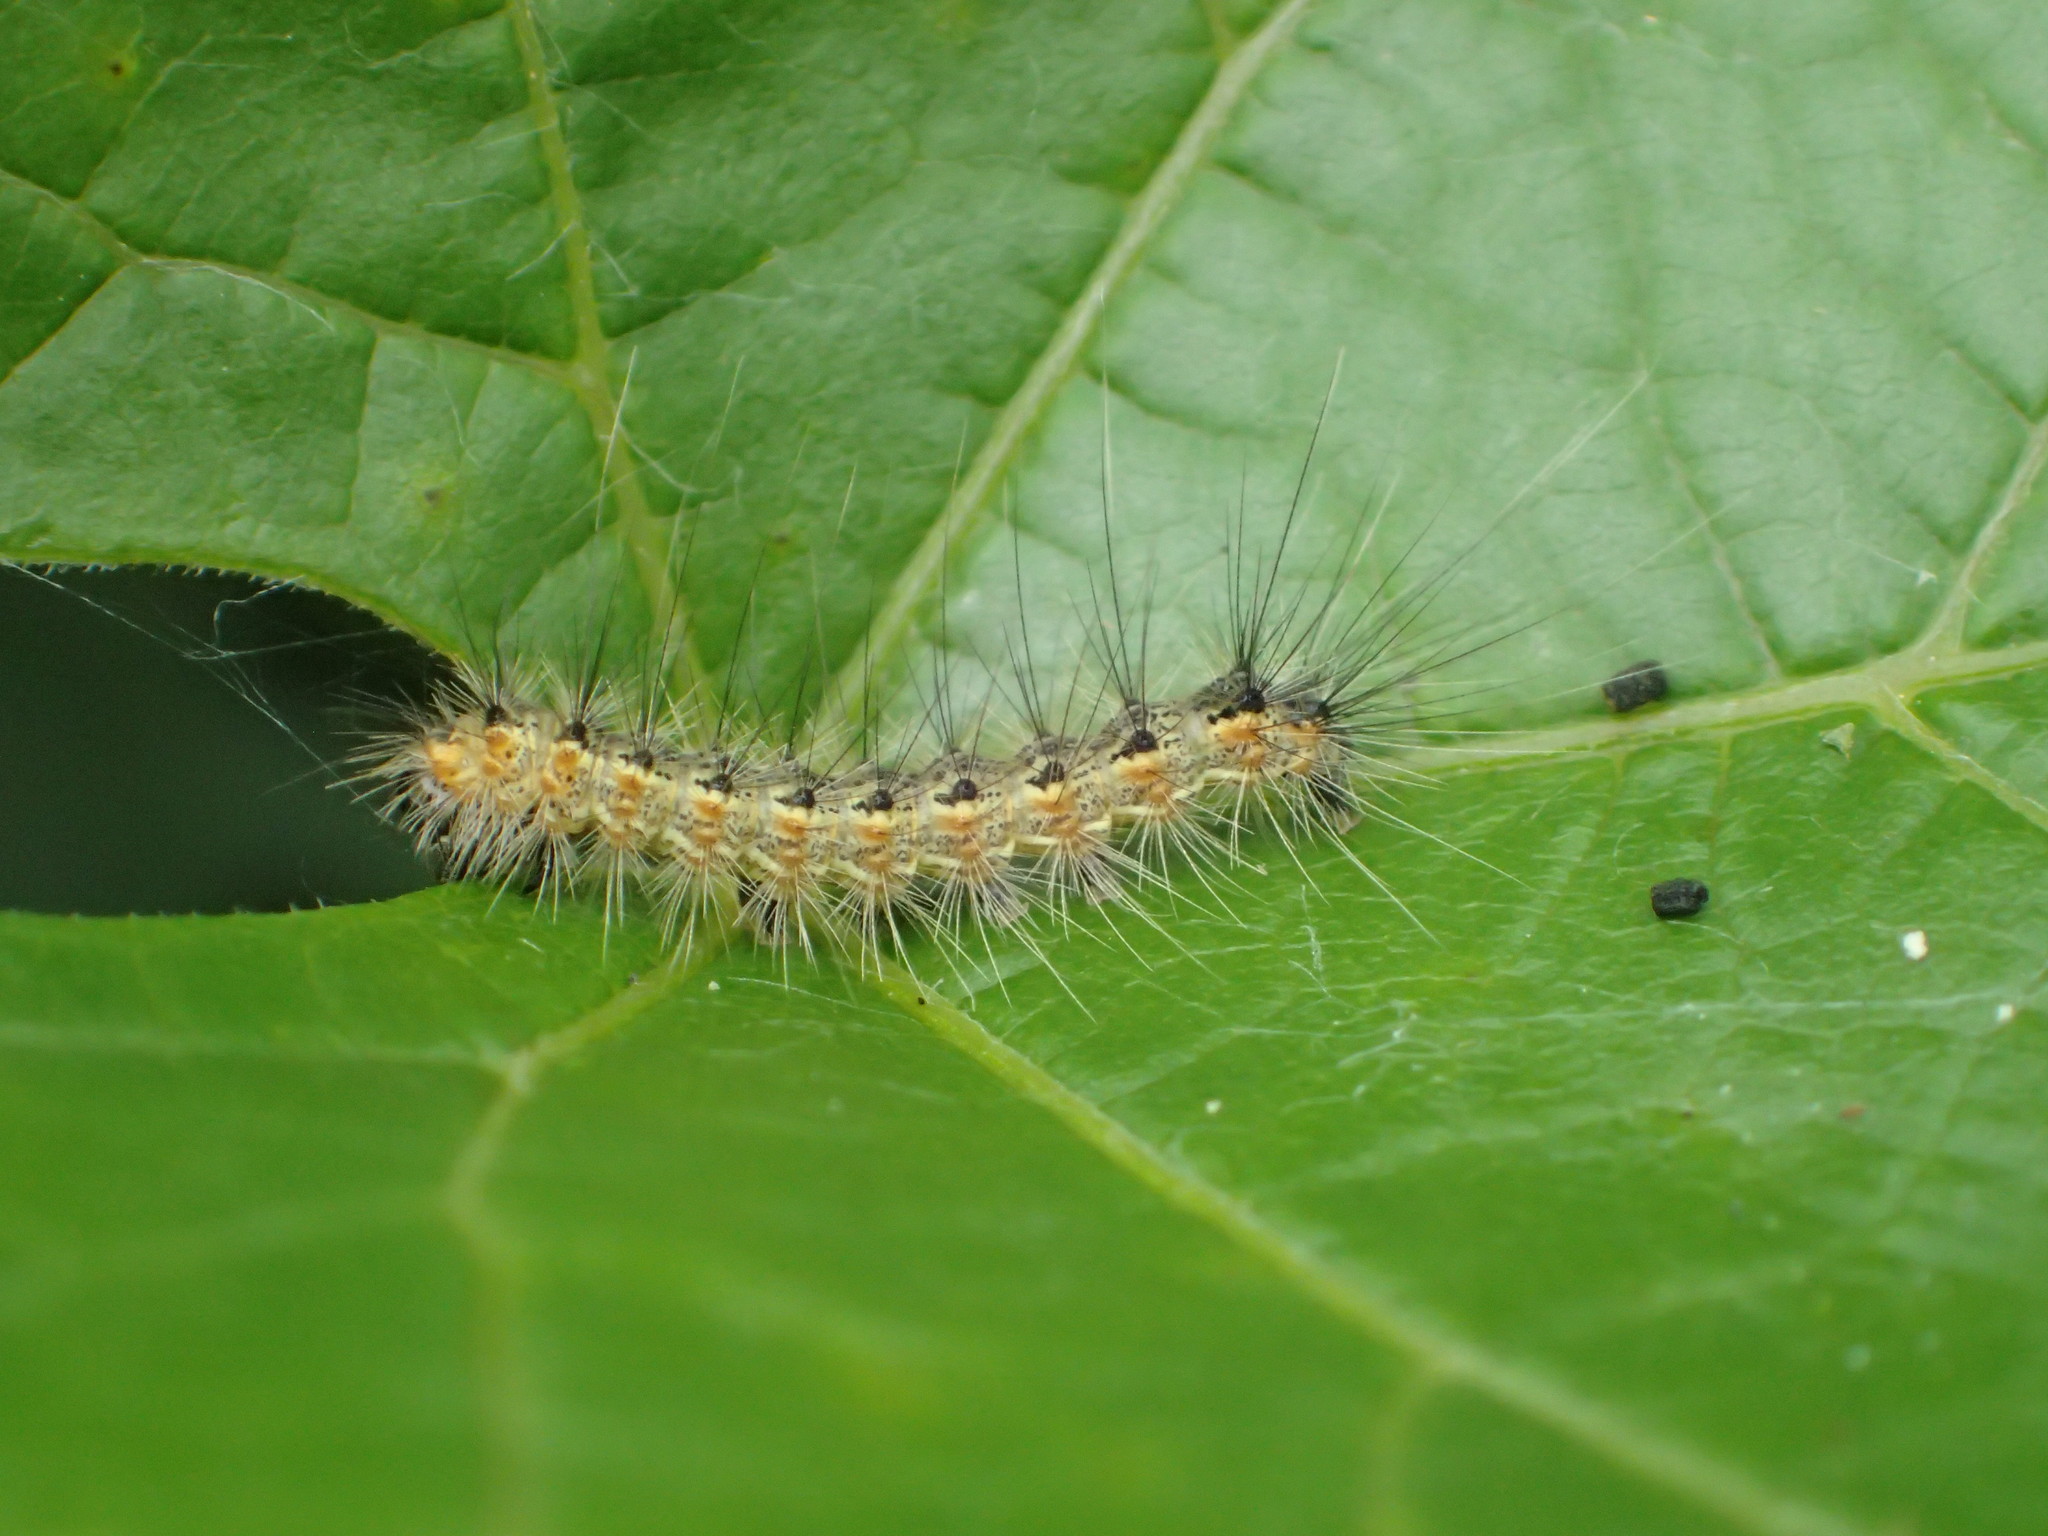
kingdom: Animalia
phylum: Arthropoda
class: Insecta
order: Lepidoptera
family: Erebidae
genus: Hyphantria
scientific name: Hyphantria cunea
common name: American white moth
